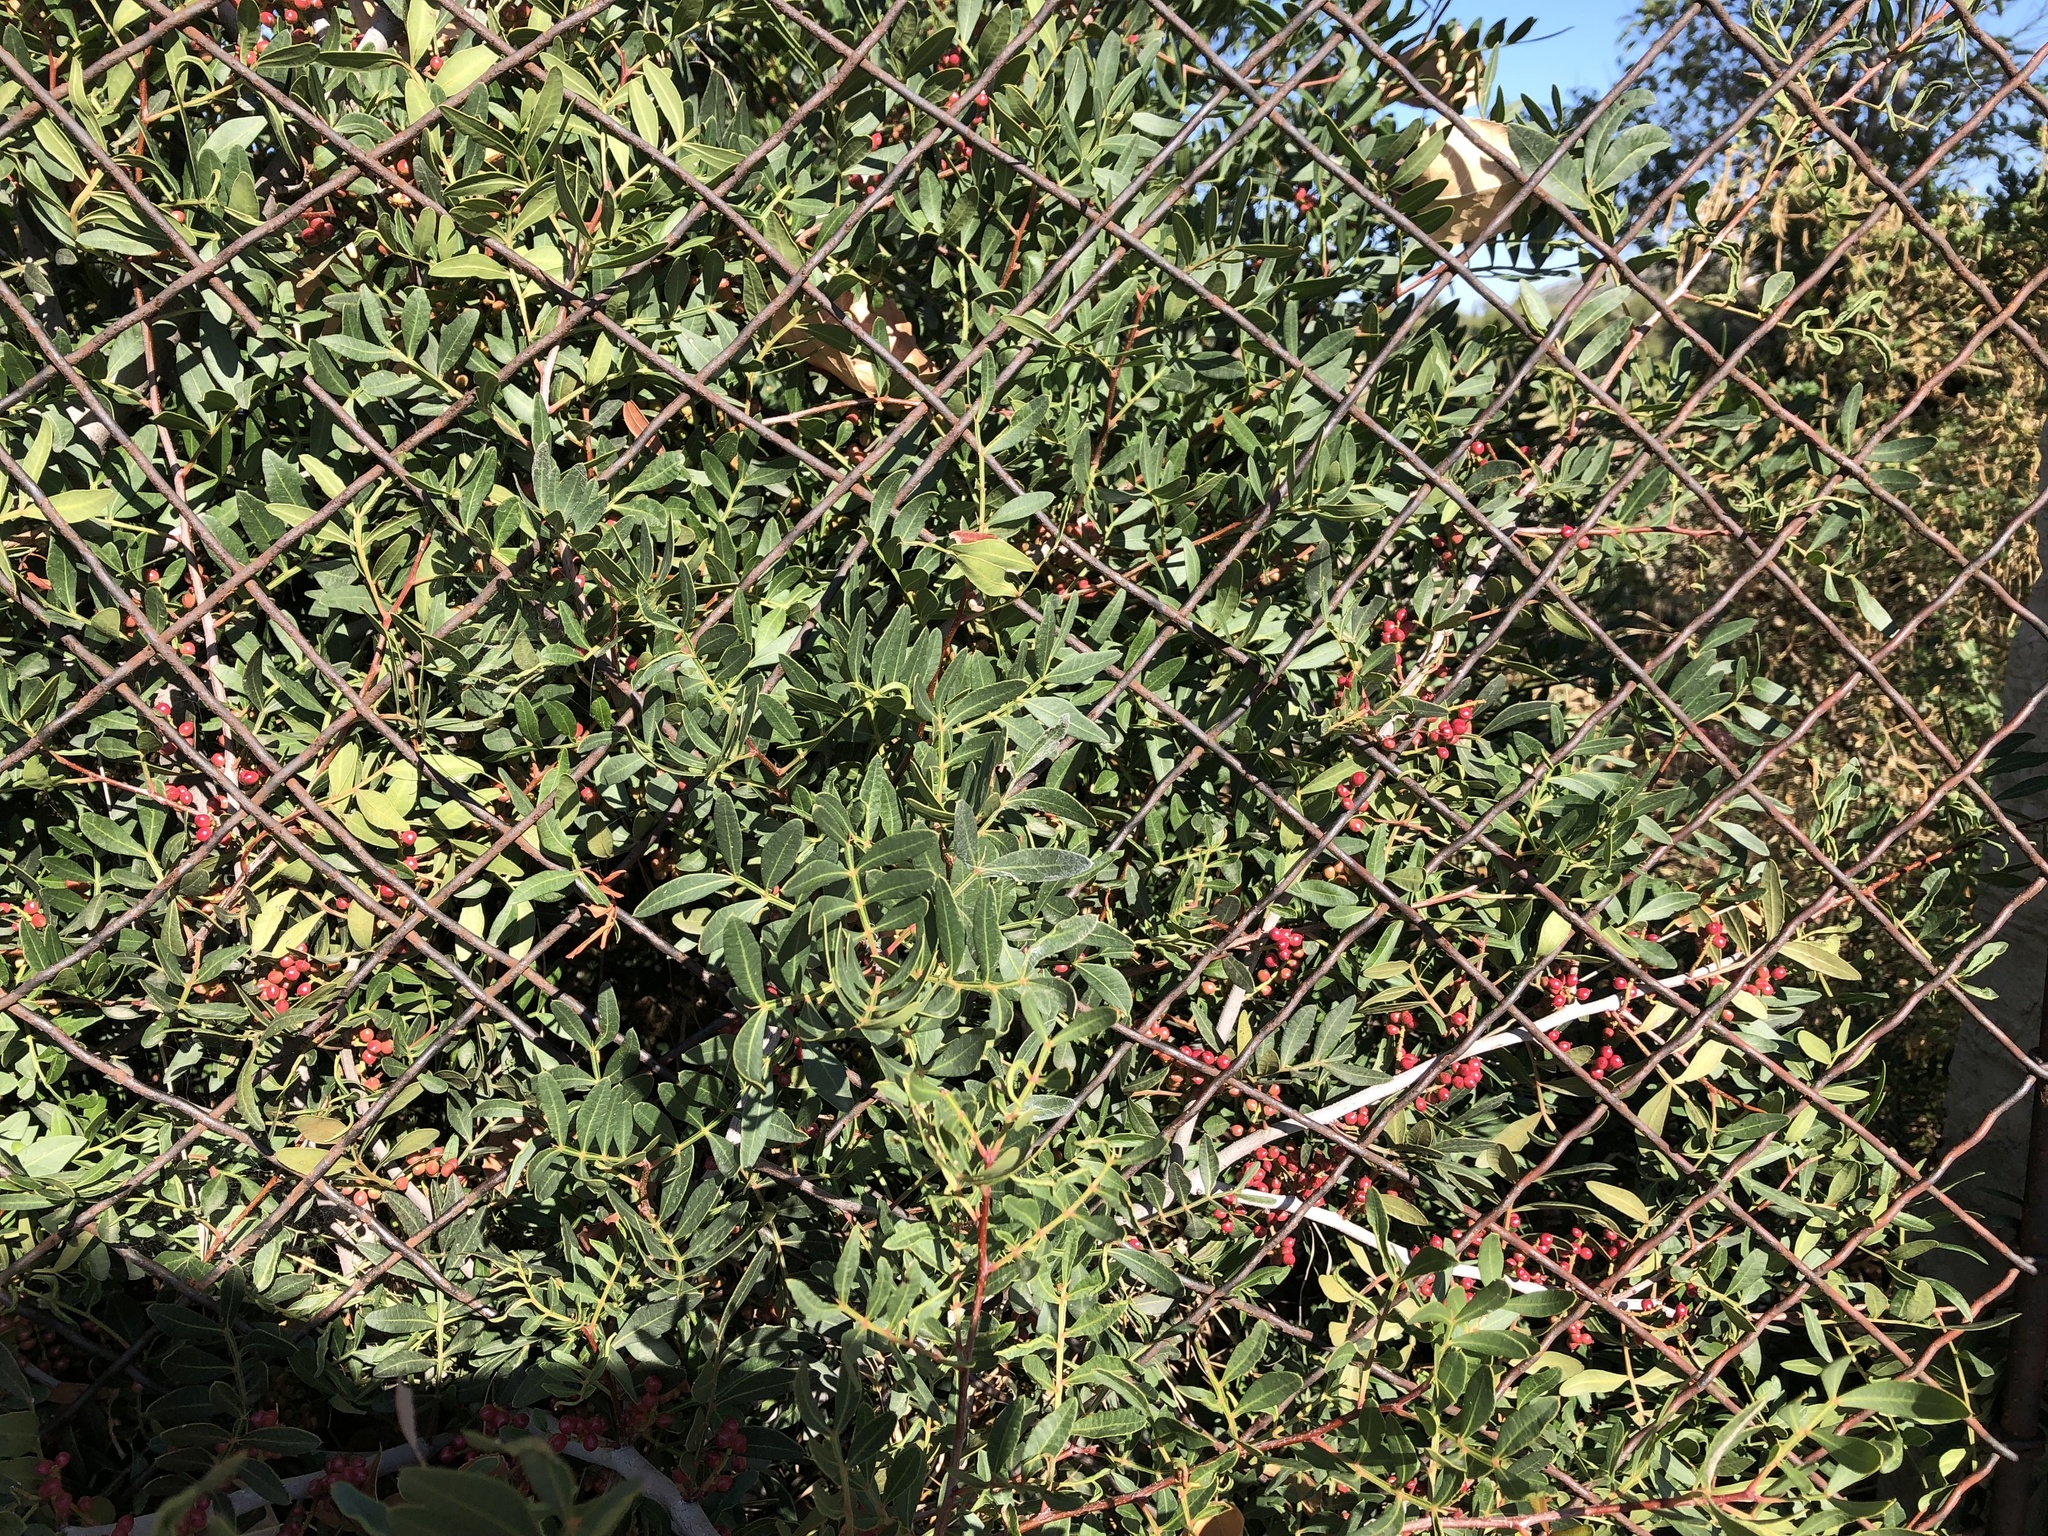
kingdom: Plantae
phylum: Tracheophyta
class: Magnoliopsida
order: Sapindales
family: Anacardiaceae
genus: Pistacia
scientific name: Pistacia lentiscus
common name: Lentisk
